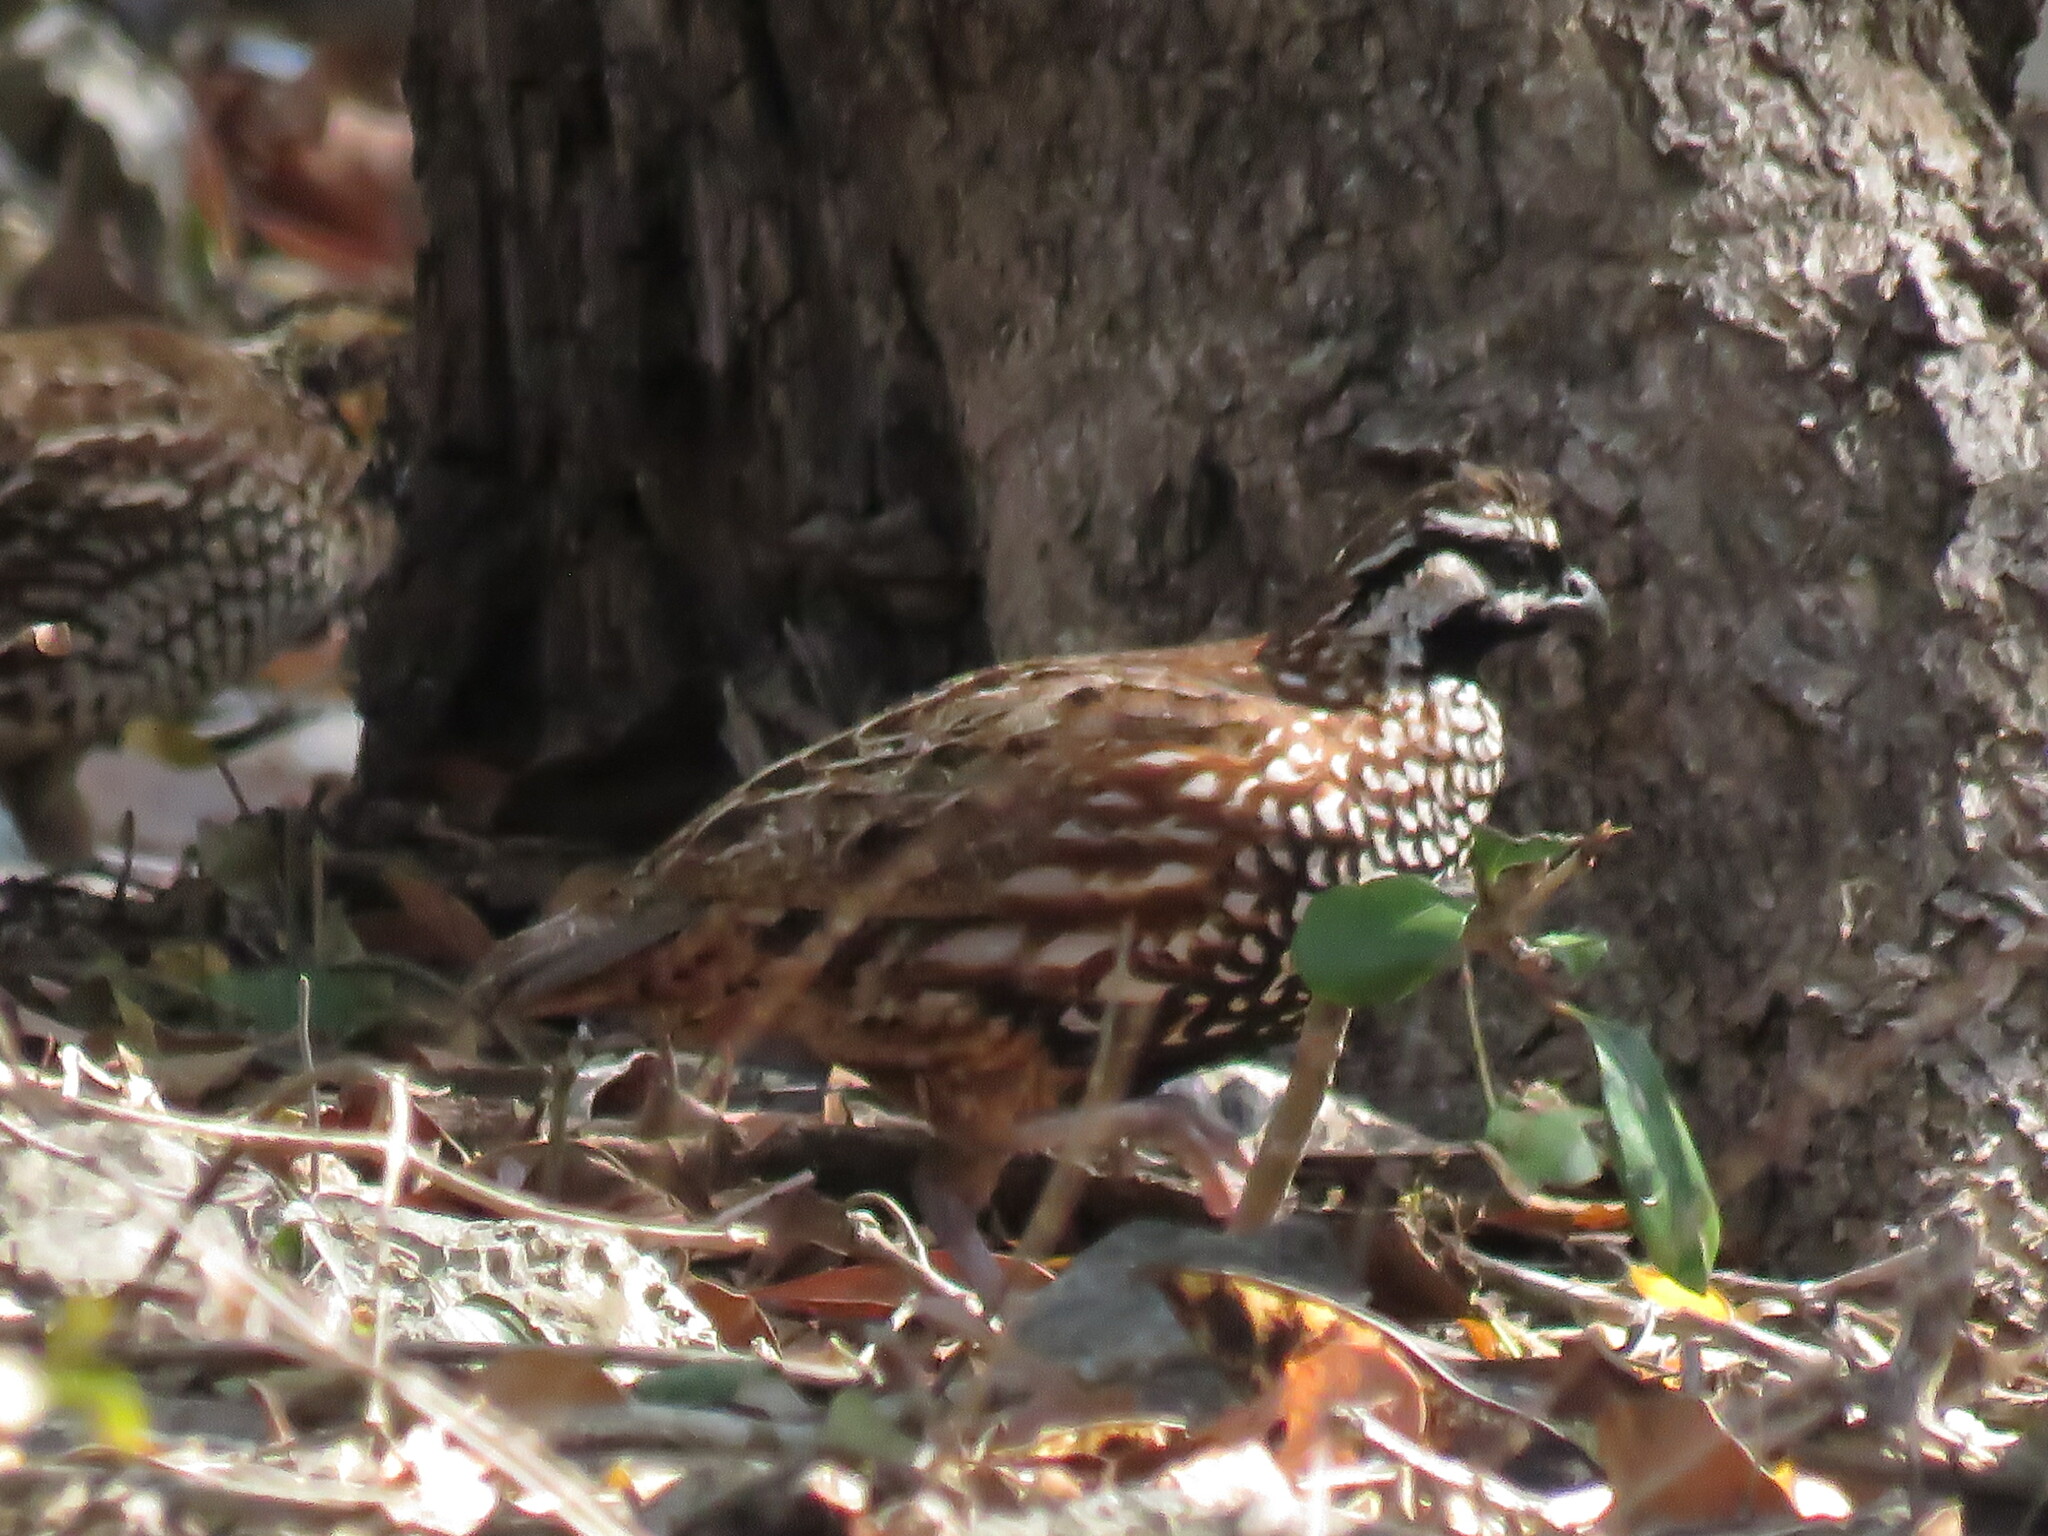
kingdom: Animalia
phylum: Chordata
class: Aves
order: Galliformes
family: Odontophoridae
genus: Colinus
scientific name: Colinus nigrogularis
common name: Yucatan bobwhite
